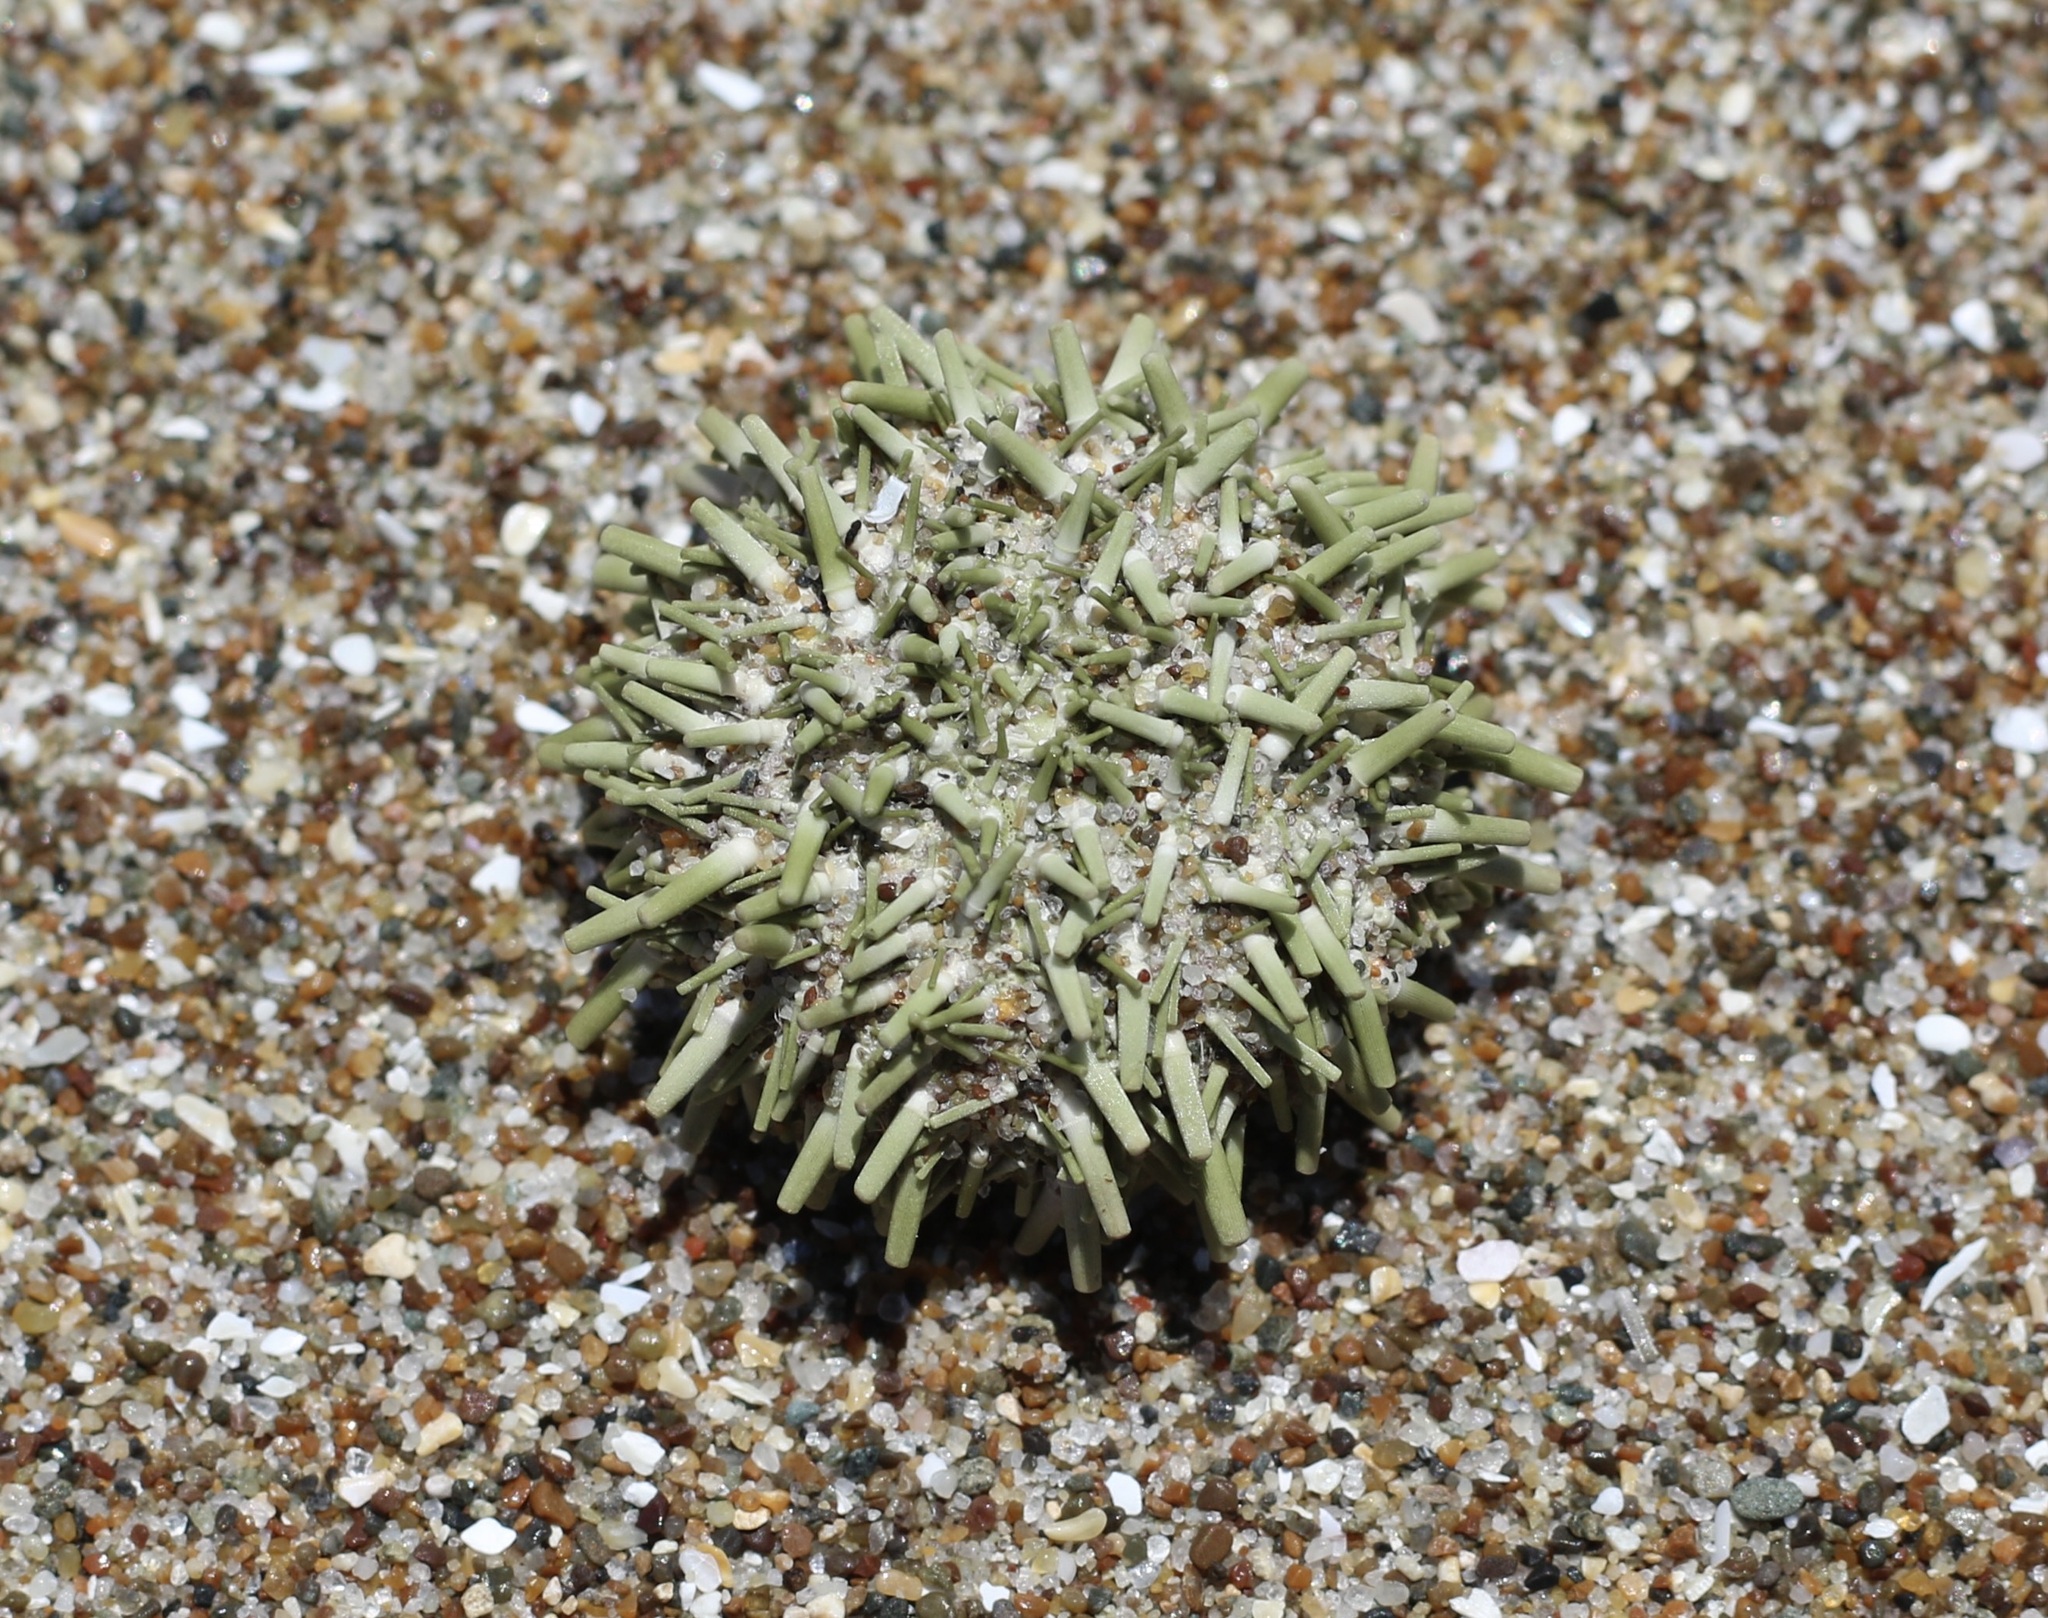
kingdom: Animalia
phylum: Echinodermata
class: Echinoidea
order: Camarodonta
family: Strongylocentrotidae
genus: Strongylocentrotus
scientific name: Strongylocentrotus purpuratus
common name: Purple sea urchin
